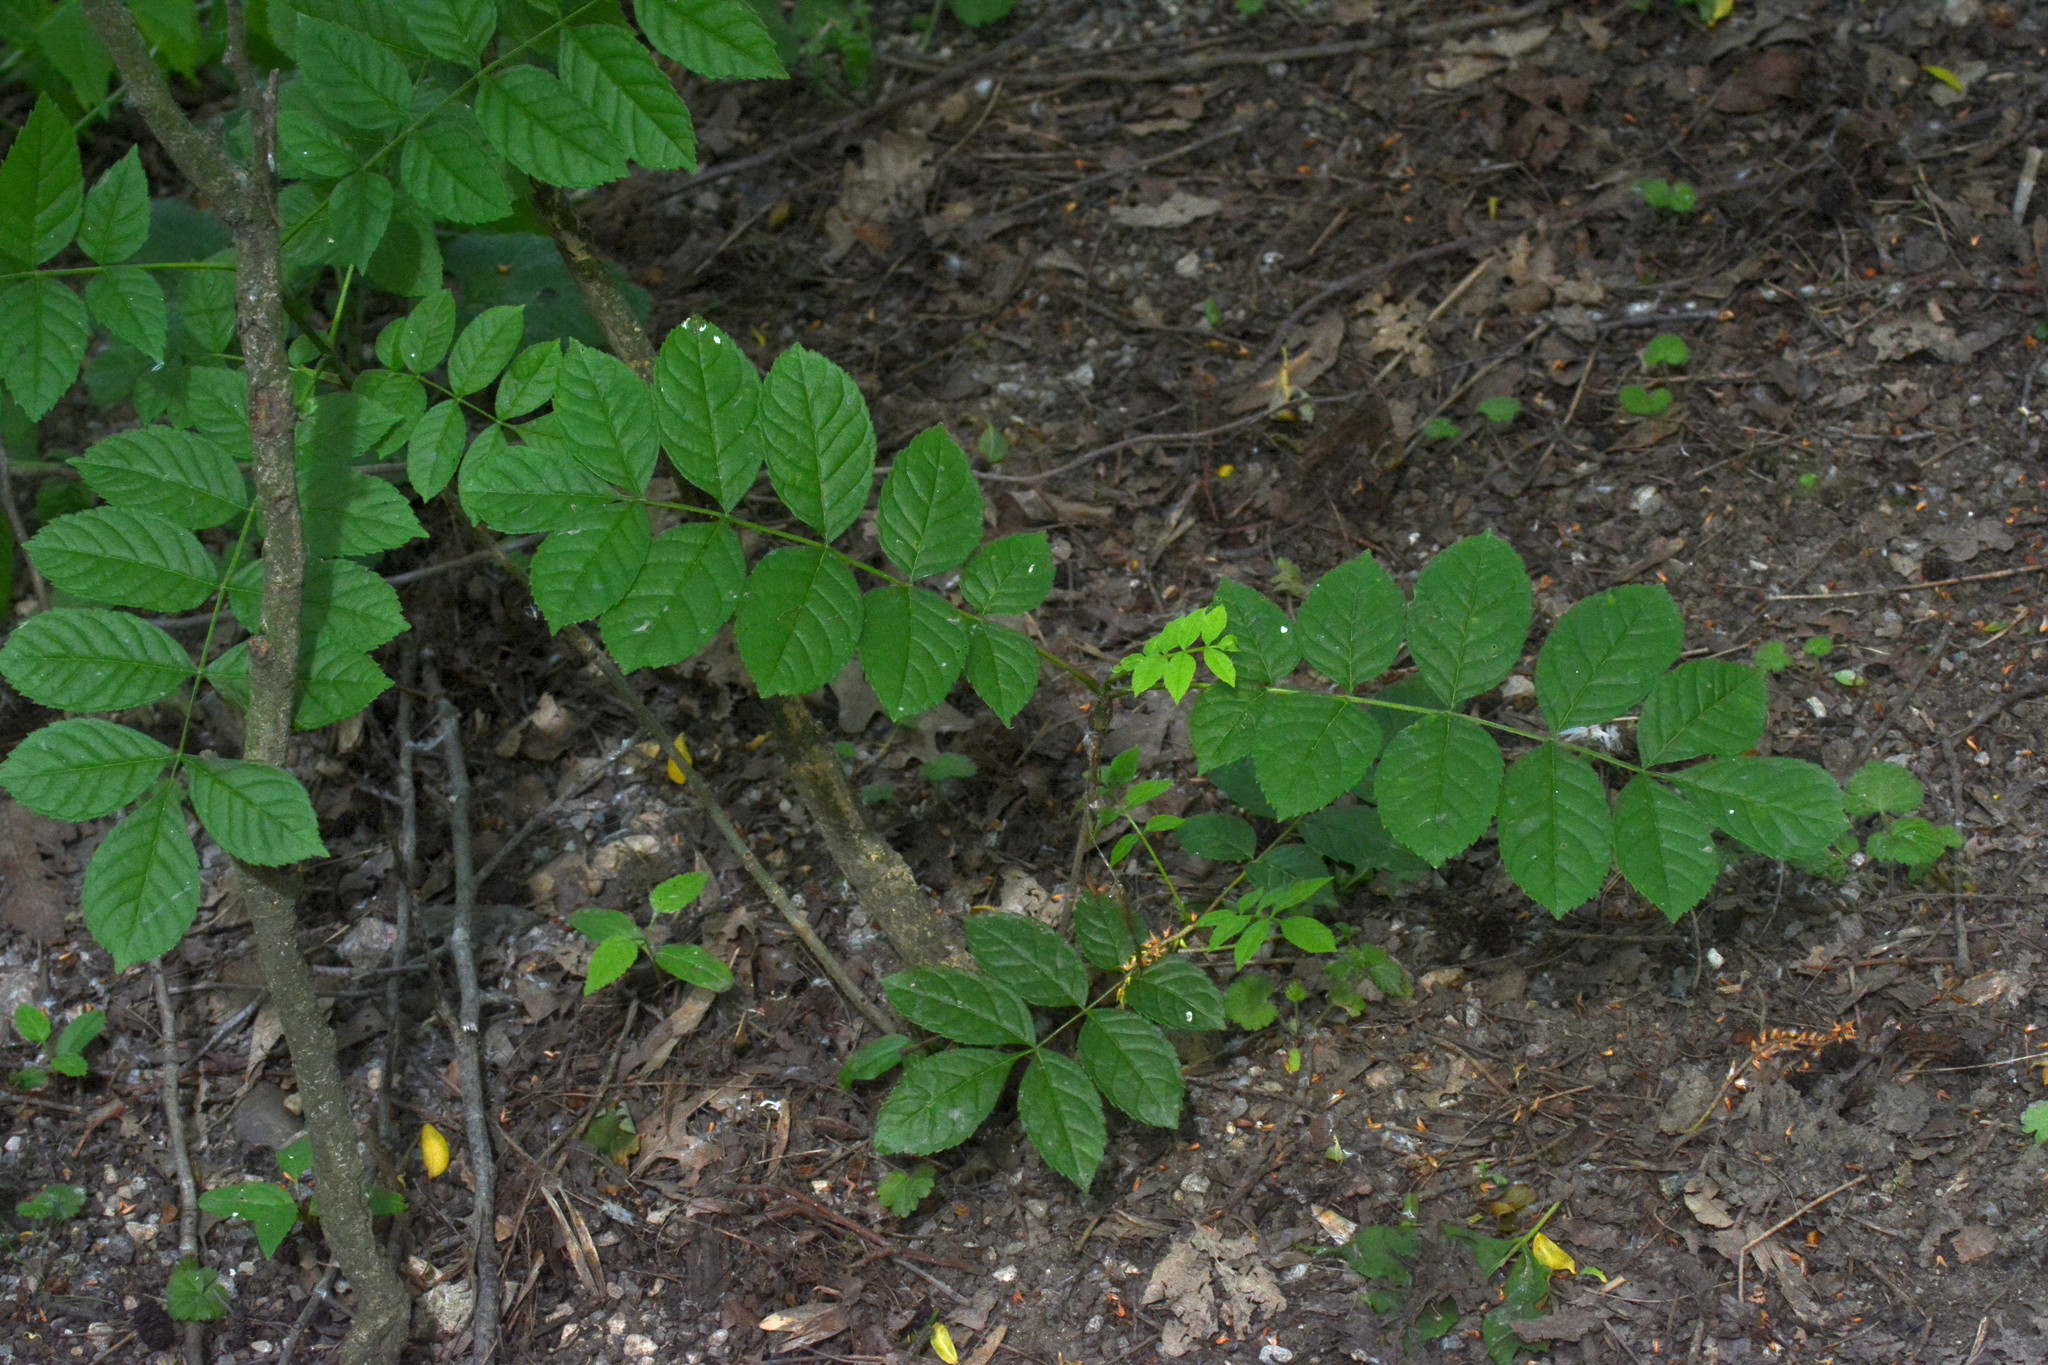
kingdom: Plantae
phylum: Tracheophyta
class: Magnoliopsida
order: Lamiales
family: Oleaceae
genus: Fraxinus
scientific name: Fraxinus excelsior
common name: European ash
